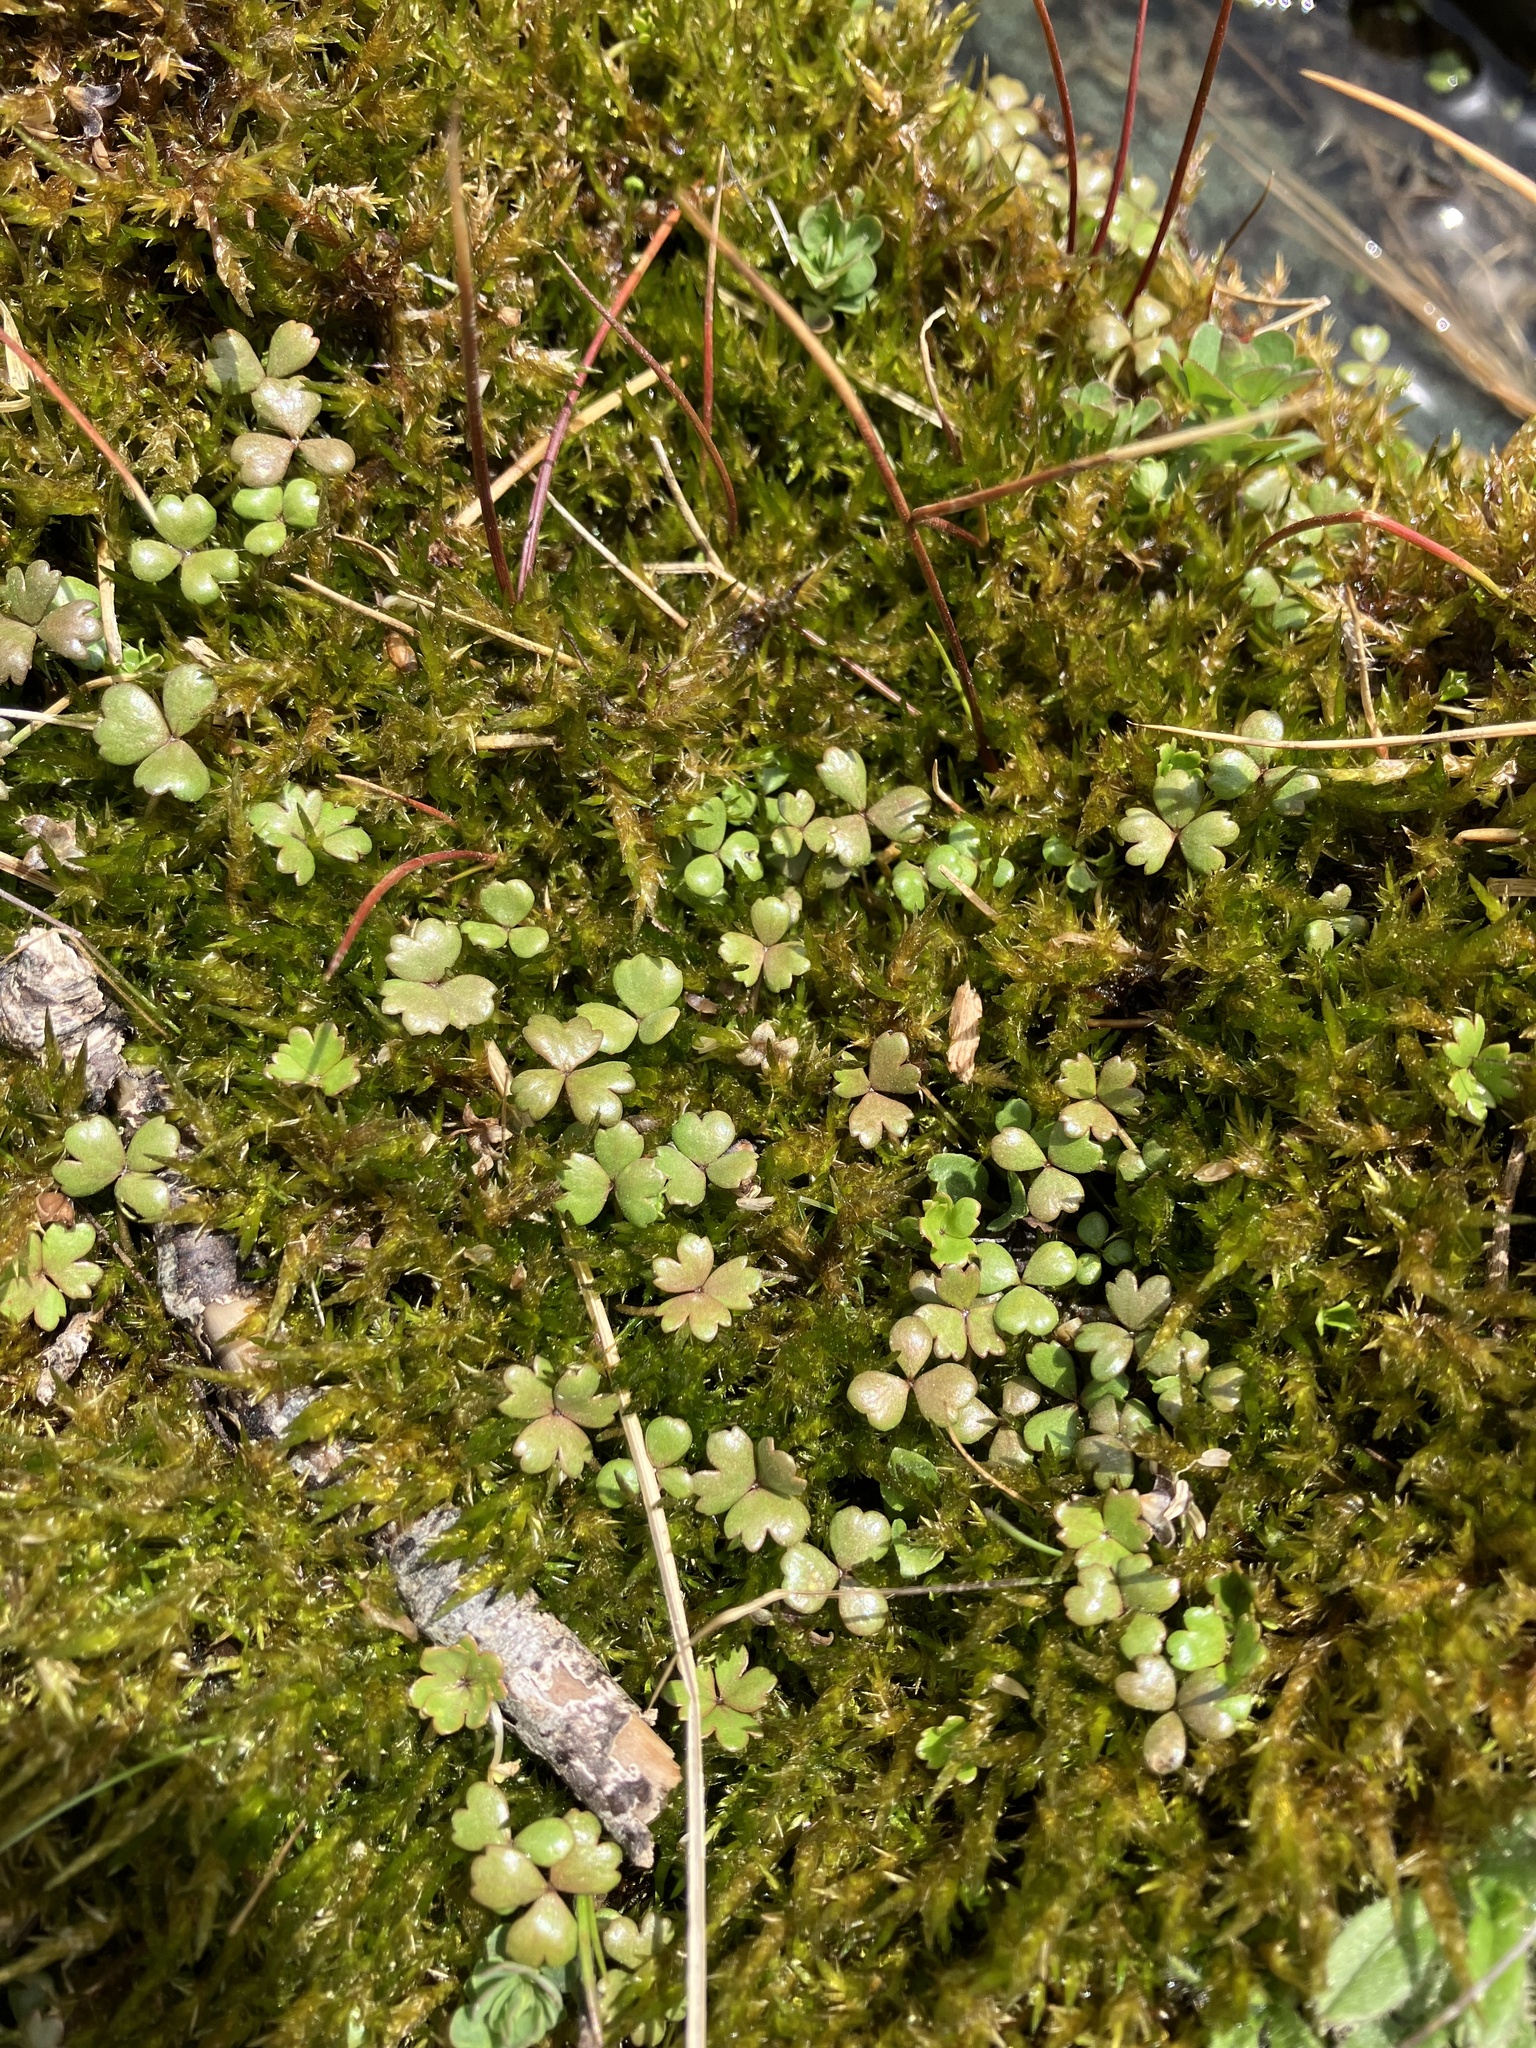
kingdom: Plantae
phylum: Tracheophyta
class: Magnoliopsida
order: Apiales
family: Araliaceae
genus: Hydrocotyle
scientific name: Hydrocotyle sulcata
